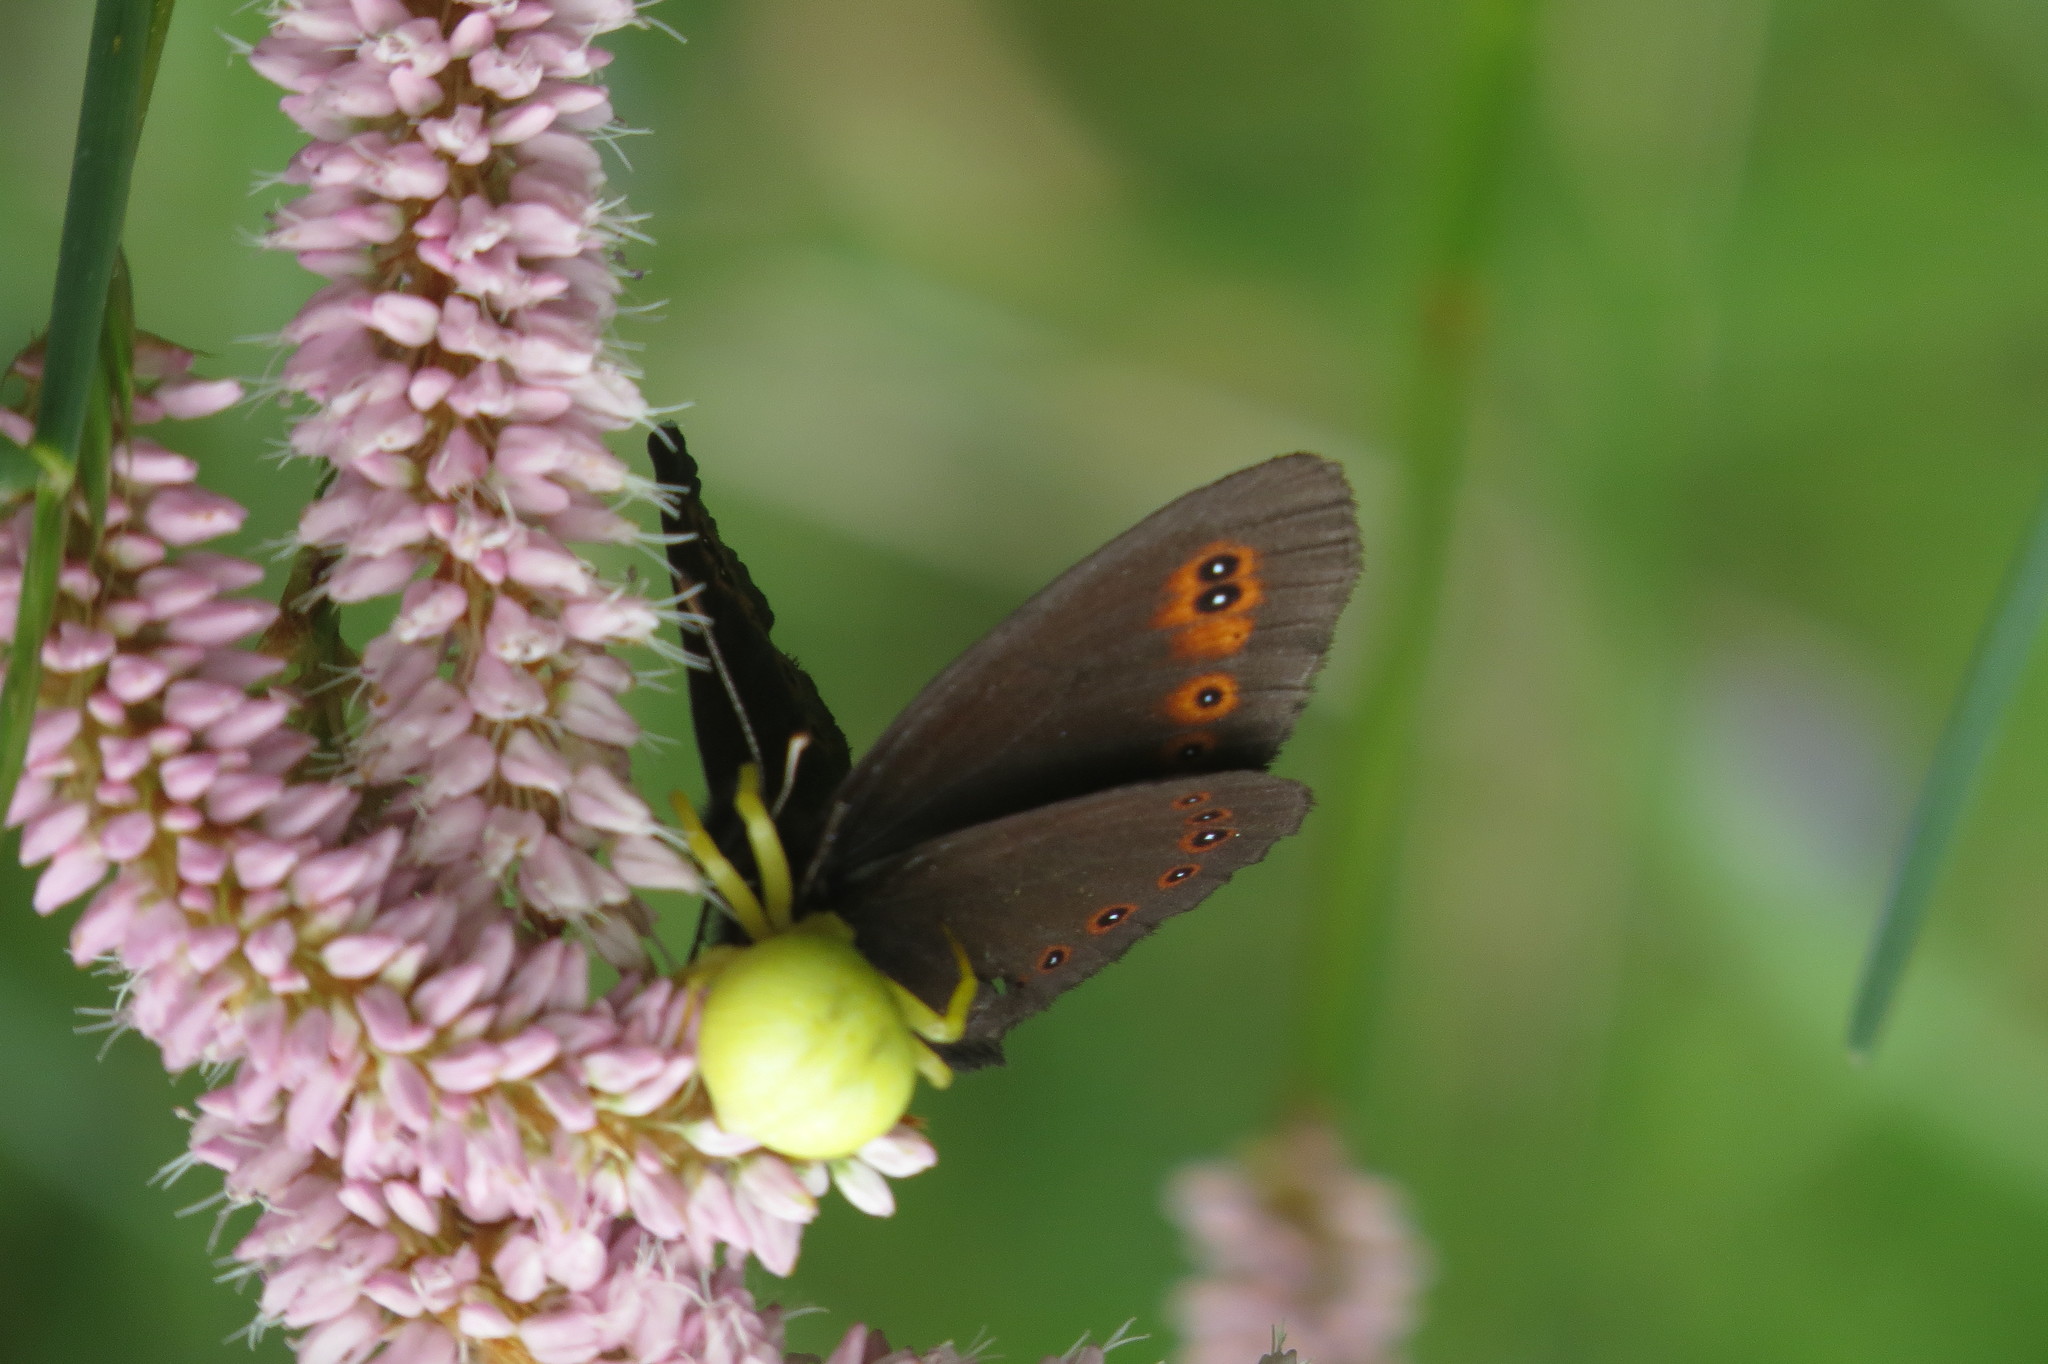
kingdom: Animalia
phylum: Arthropoda
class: Insecta
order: Lepidoptera
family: Nymphalidae
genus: Erebia
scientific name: Erebia medusa
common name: Woodland ringlet
